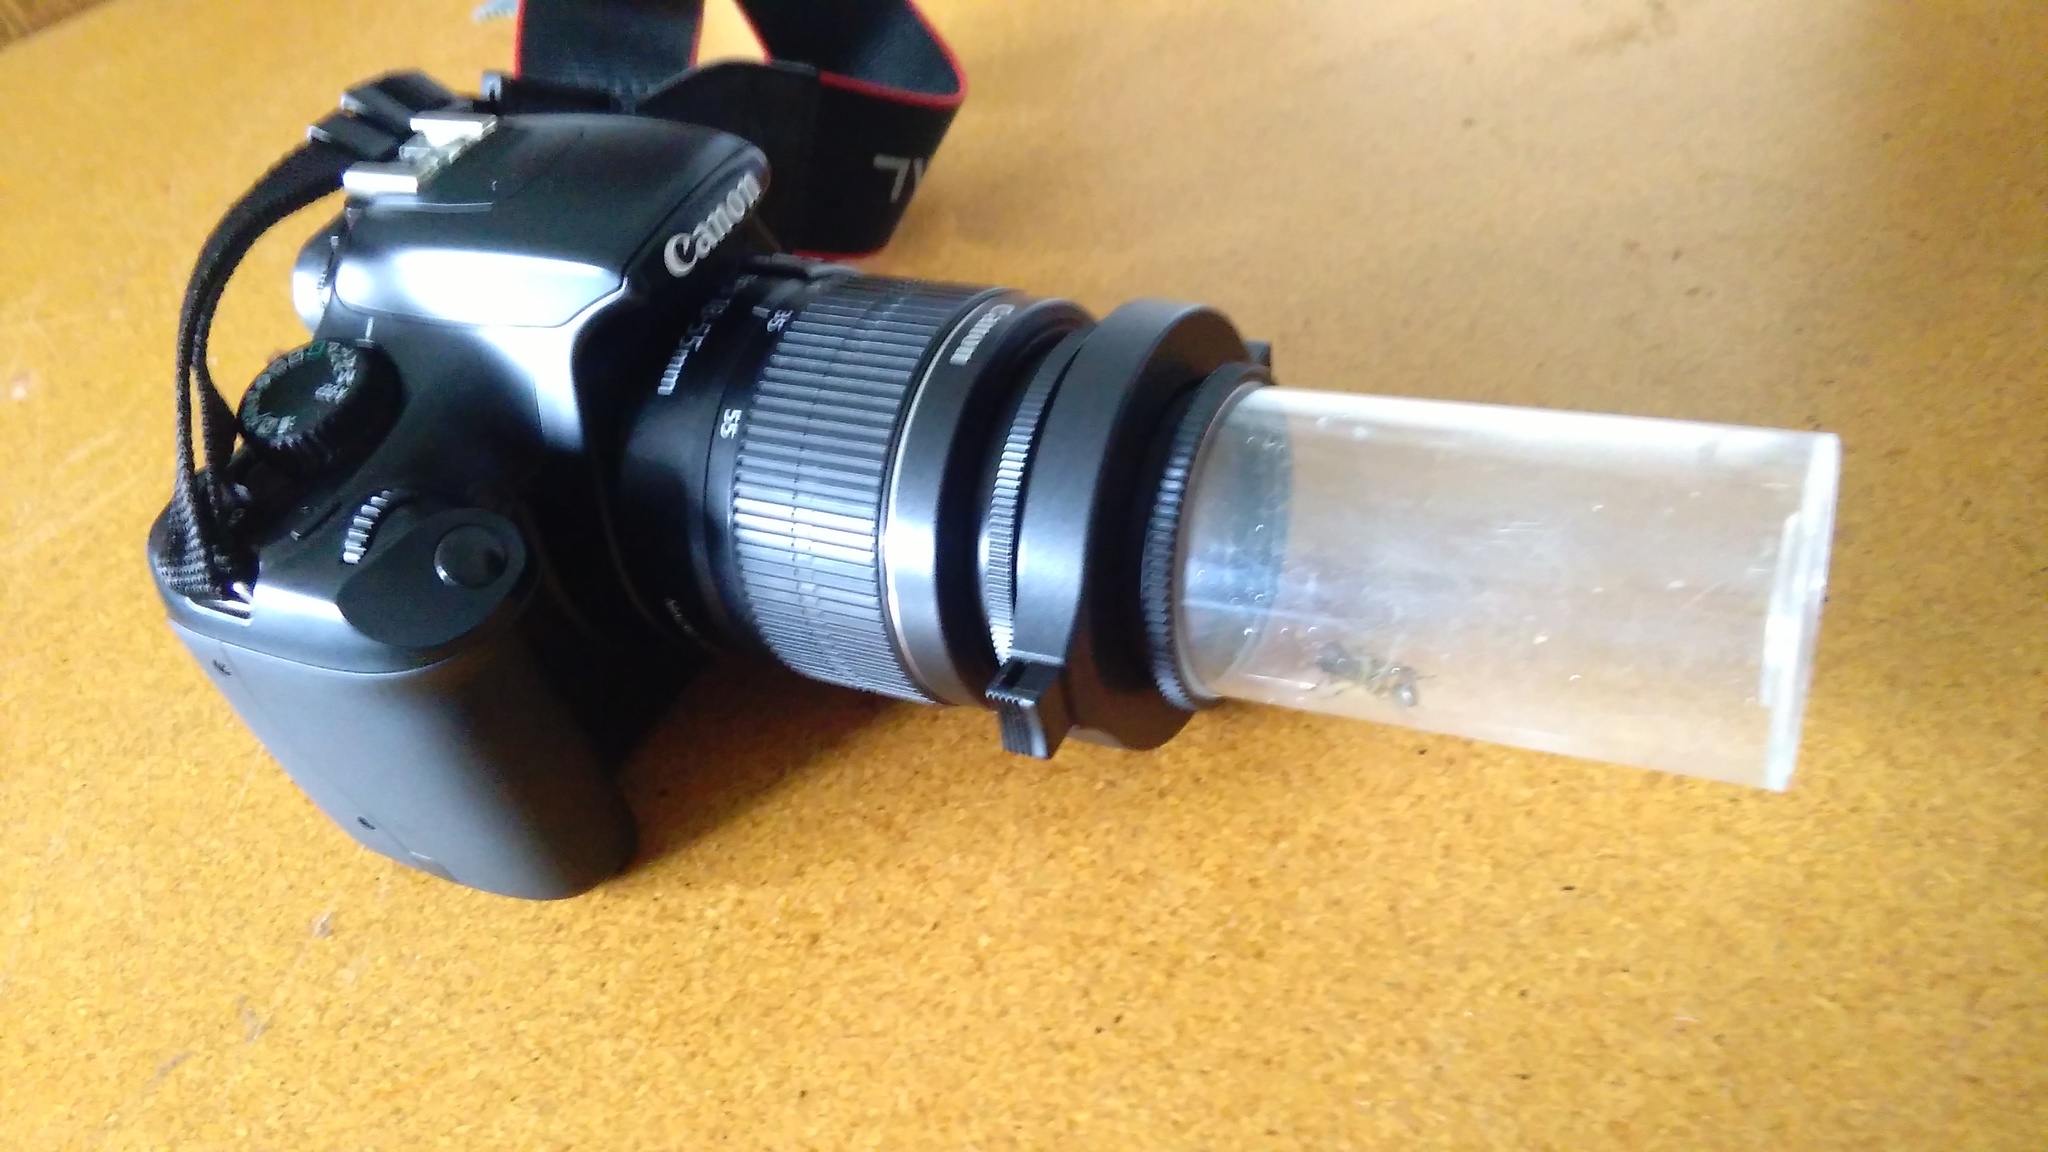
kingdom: Animalia
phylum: Arthropoda
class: Insecta
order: Diptera
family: Syrphidae
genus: Eristalis
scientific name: Eristalis tenax
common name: Drone fly
